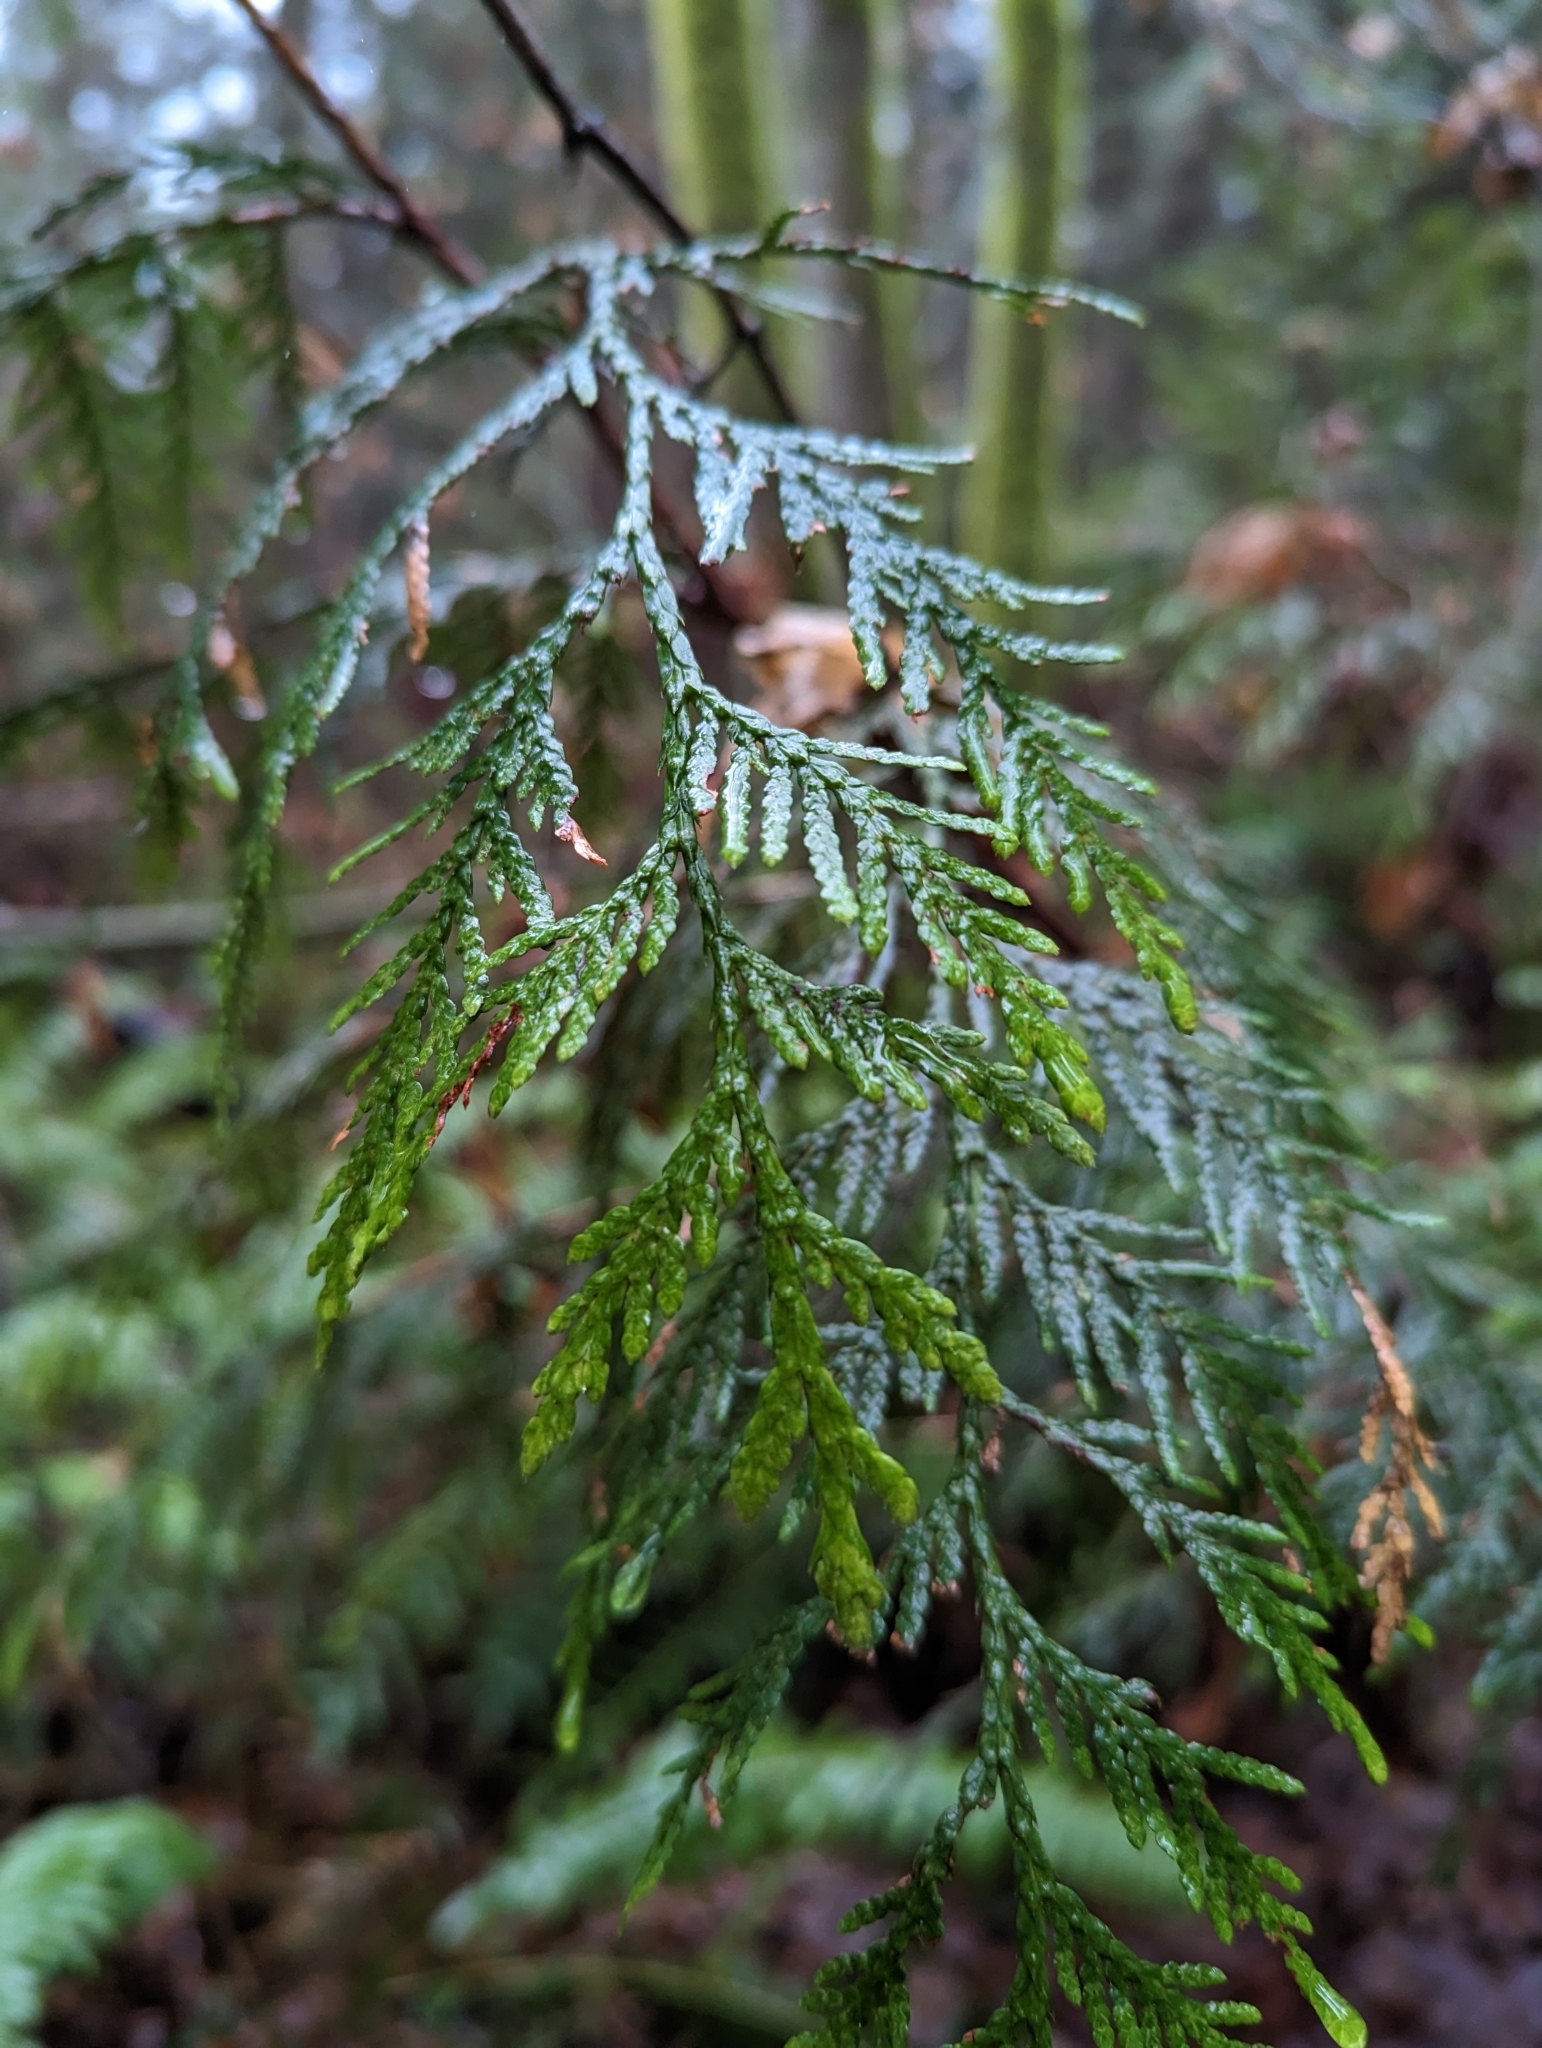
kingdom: Plantae
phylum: Tracheophyta
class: Pinopsida
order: Pinales
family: Cupressaceae
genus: Thuja
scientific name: Thuja plicata
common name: Western red-cedar
